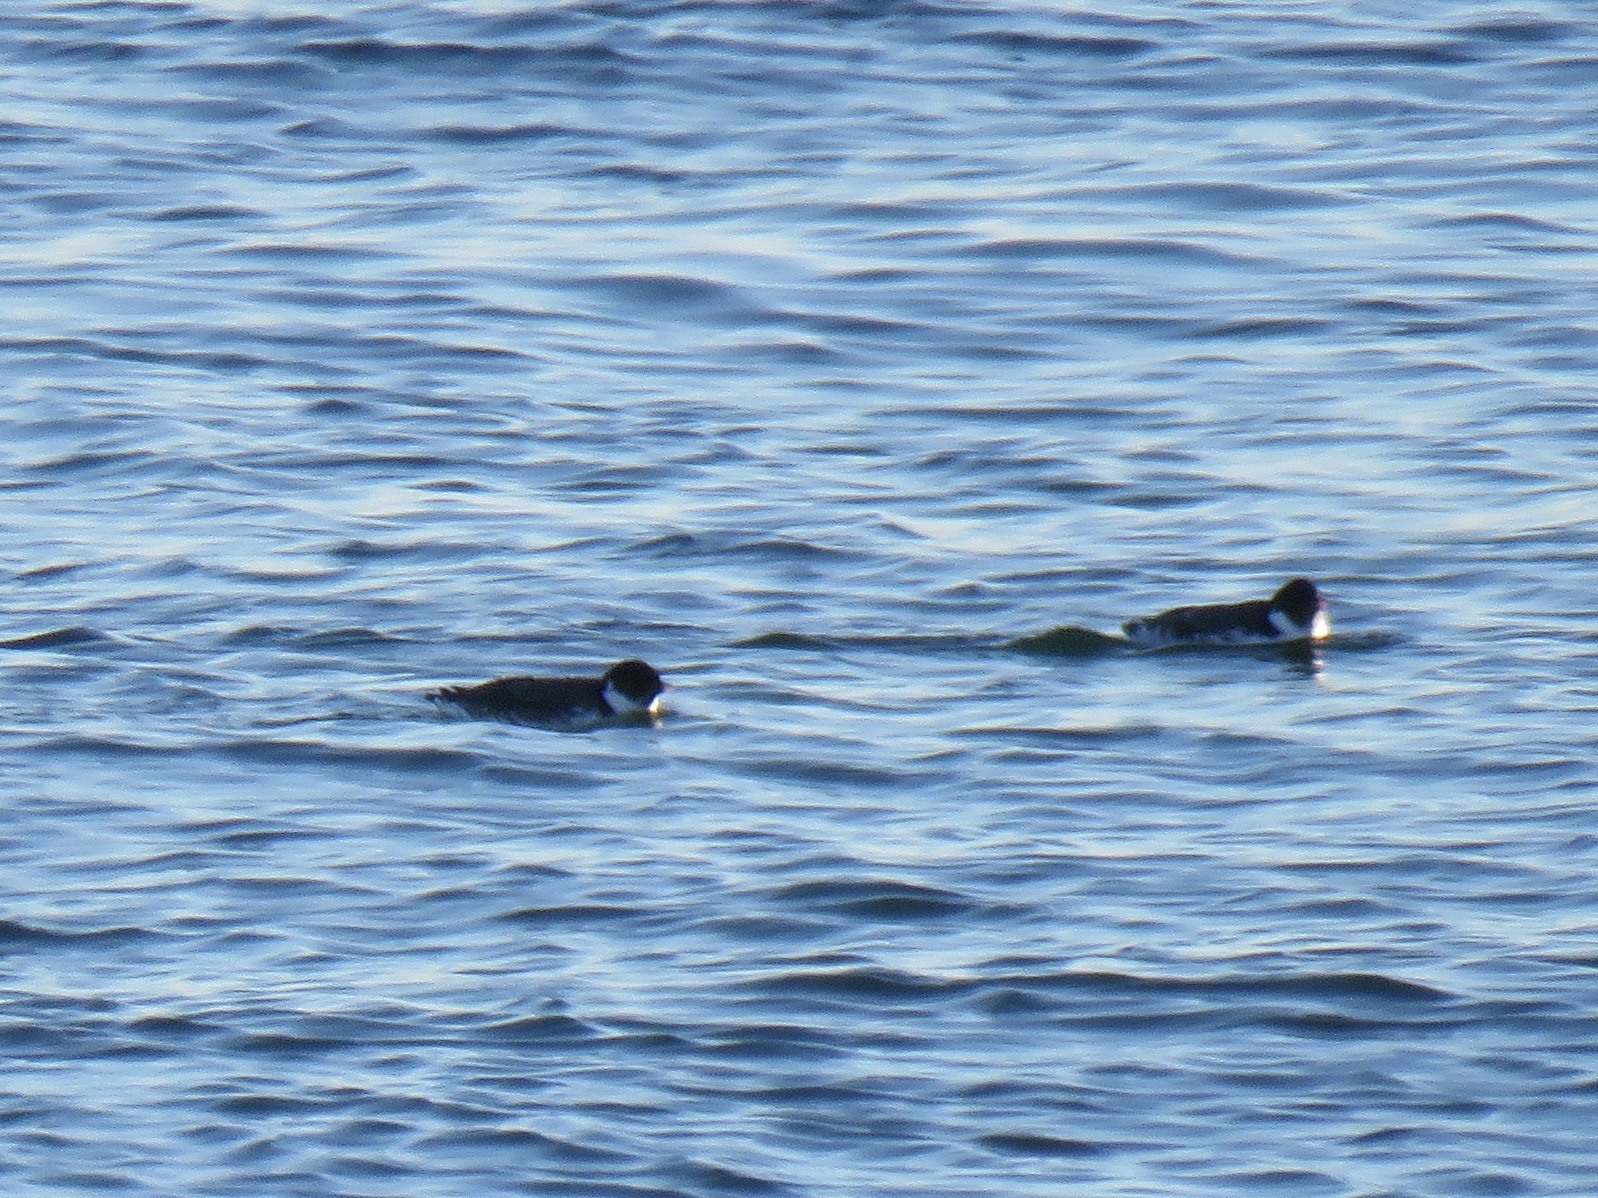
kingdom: Animalia
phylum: Chordata
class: Aves
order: Charadriiformes
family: Alcidae
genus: Synthliboramphus
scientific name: Synthliboramphus antiquus
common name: Ancient murrelet
